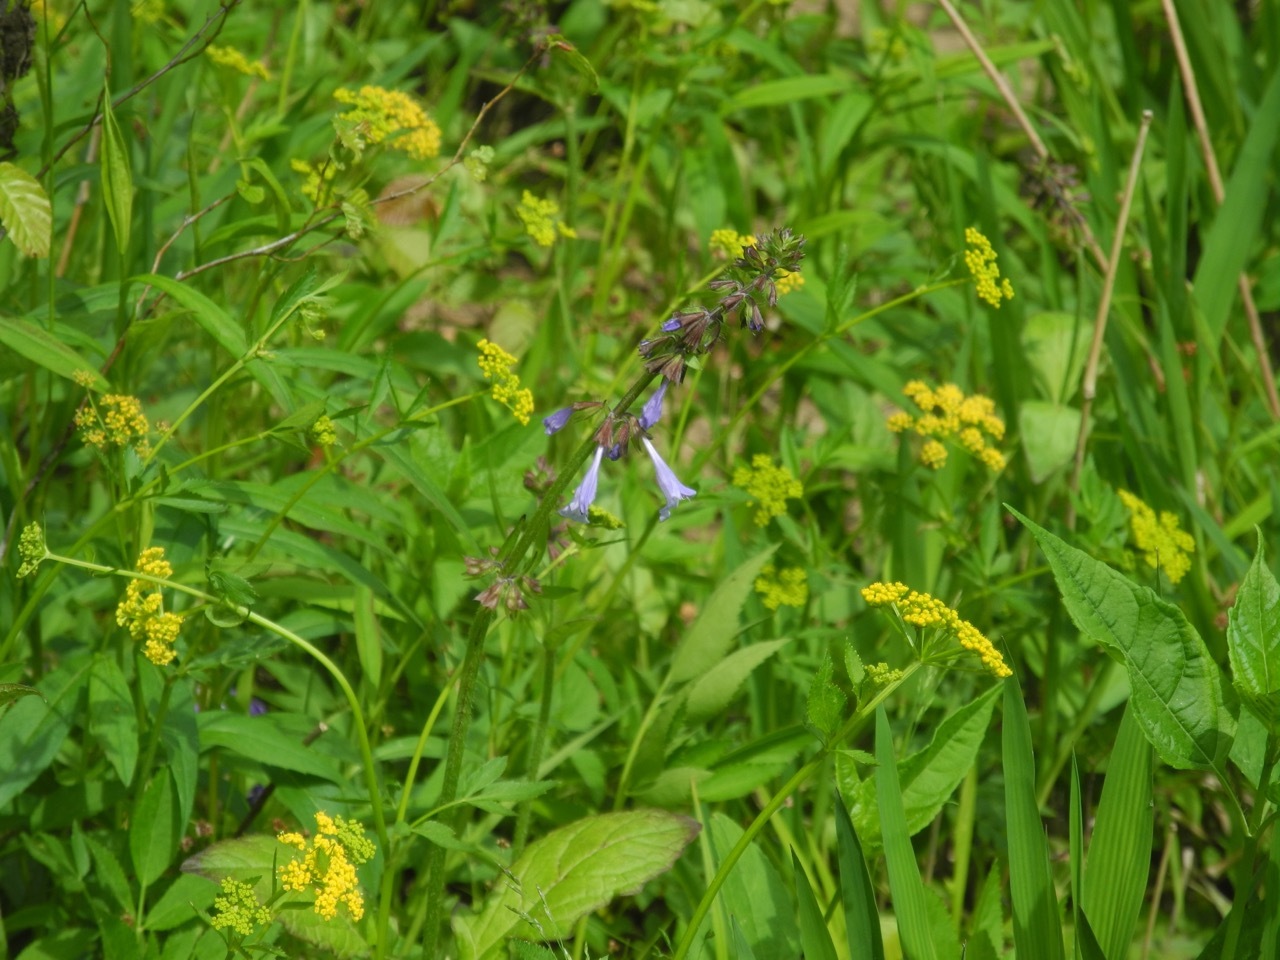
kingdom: Plantae
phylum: Tracheophyta
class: Magnoliopsida
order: Lamiales
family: Lamiaceae
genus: Salvia
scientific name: Salvia lyrata
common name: Cancerweed
